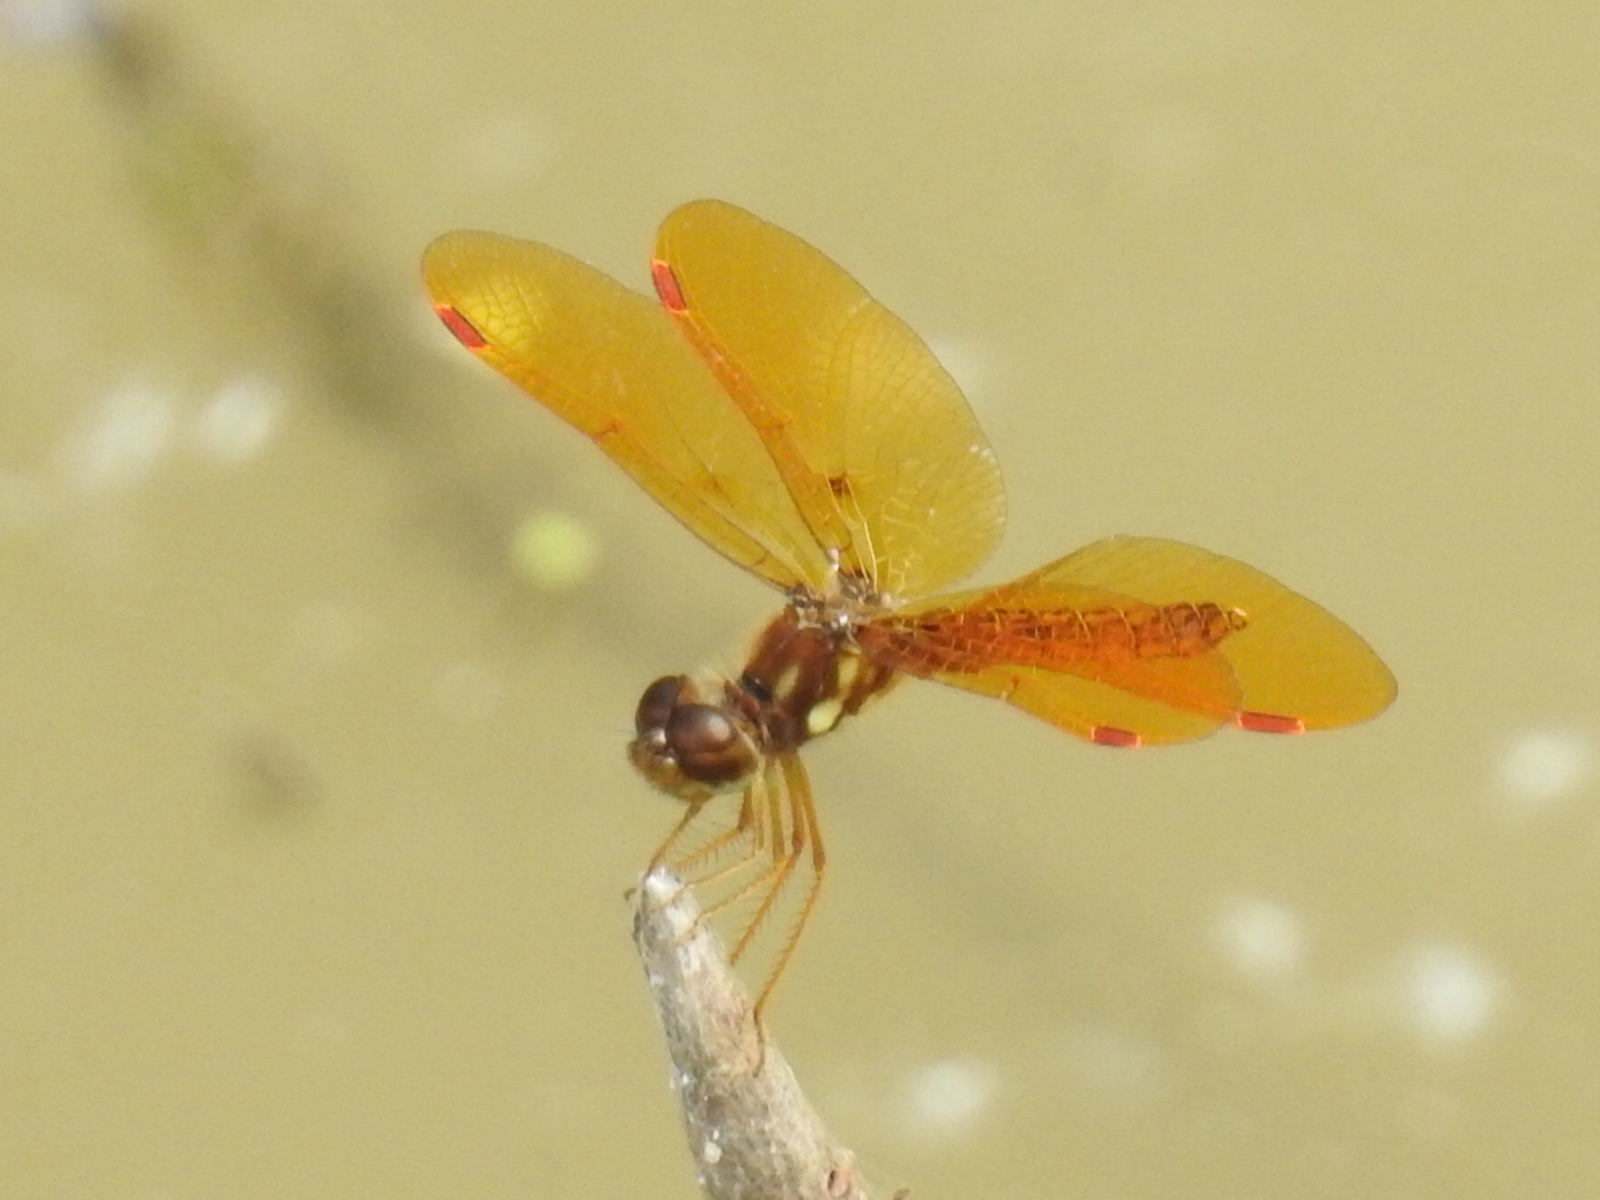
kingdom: Animalia
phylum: Arthropoda
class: Insecta
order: Odonata
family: Libellulidae
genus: Perithemis
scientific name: Perithemis tenera
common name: Eastern amberwing
